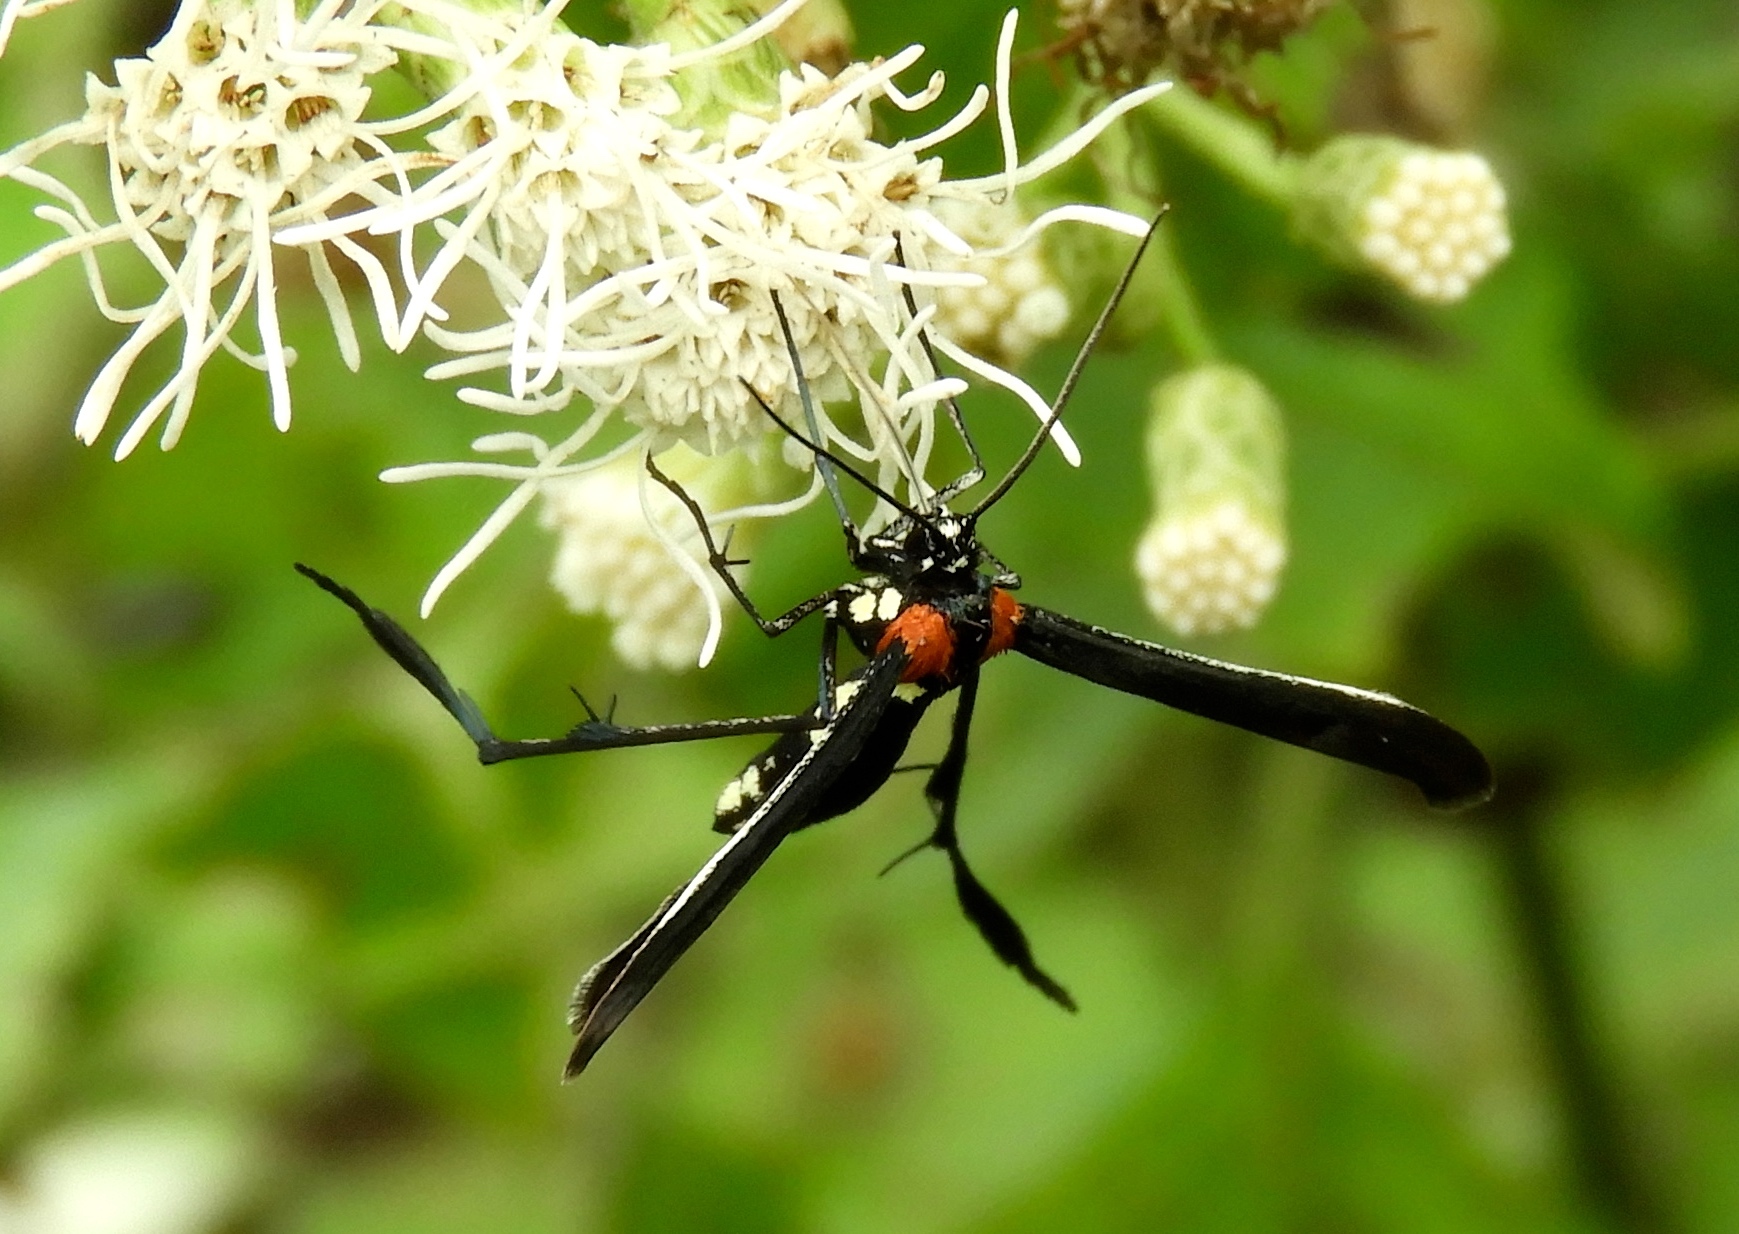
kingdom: Animalia
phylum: Arthropoda
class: Insecta
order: Lepidoptera
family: Pterophoridae
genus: Hellinsia
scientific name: Hellinsia chamelai
